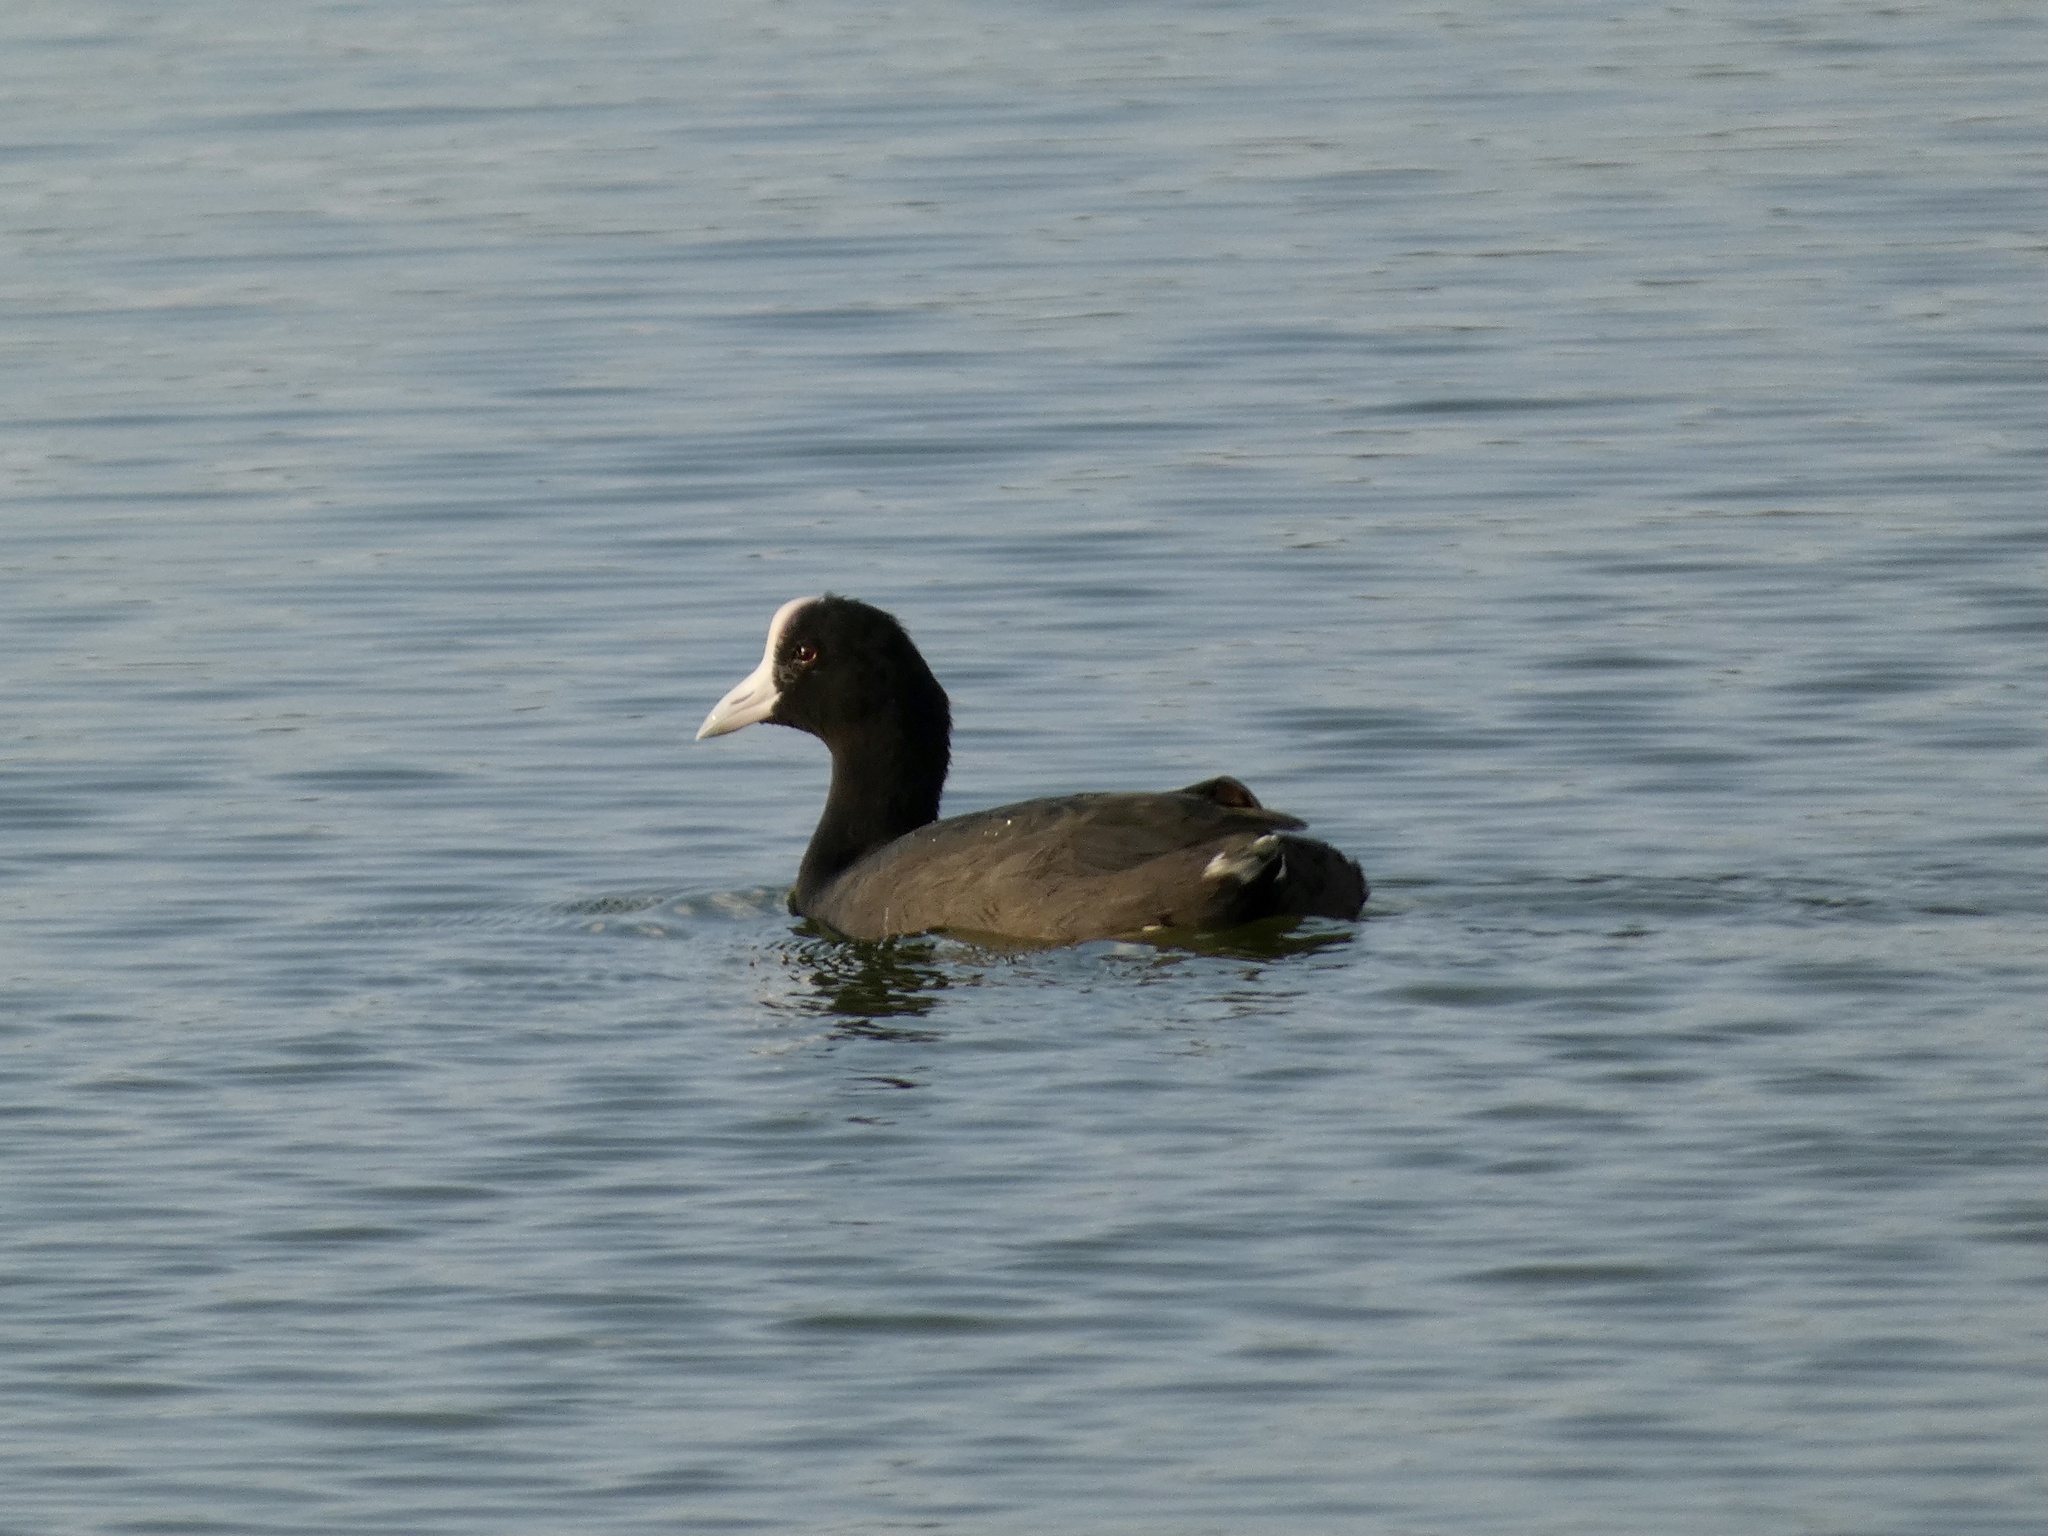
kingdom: Animalia
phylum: Chordata
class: Aves
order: Gruiformes
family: Rallidae
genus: Fulica
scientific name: Fulica alai
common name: Hawaiian coot
